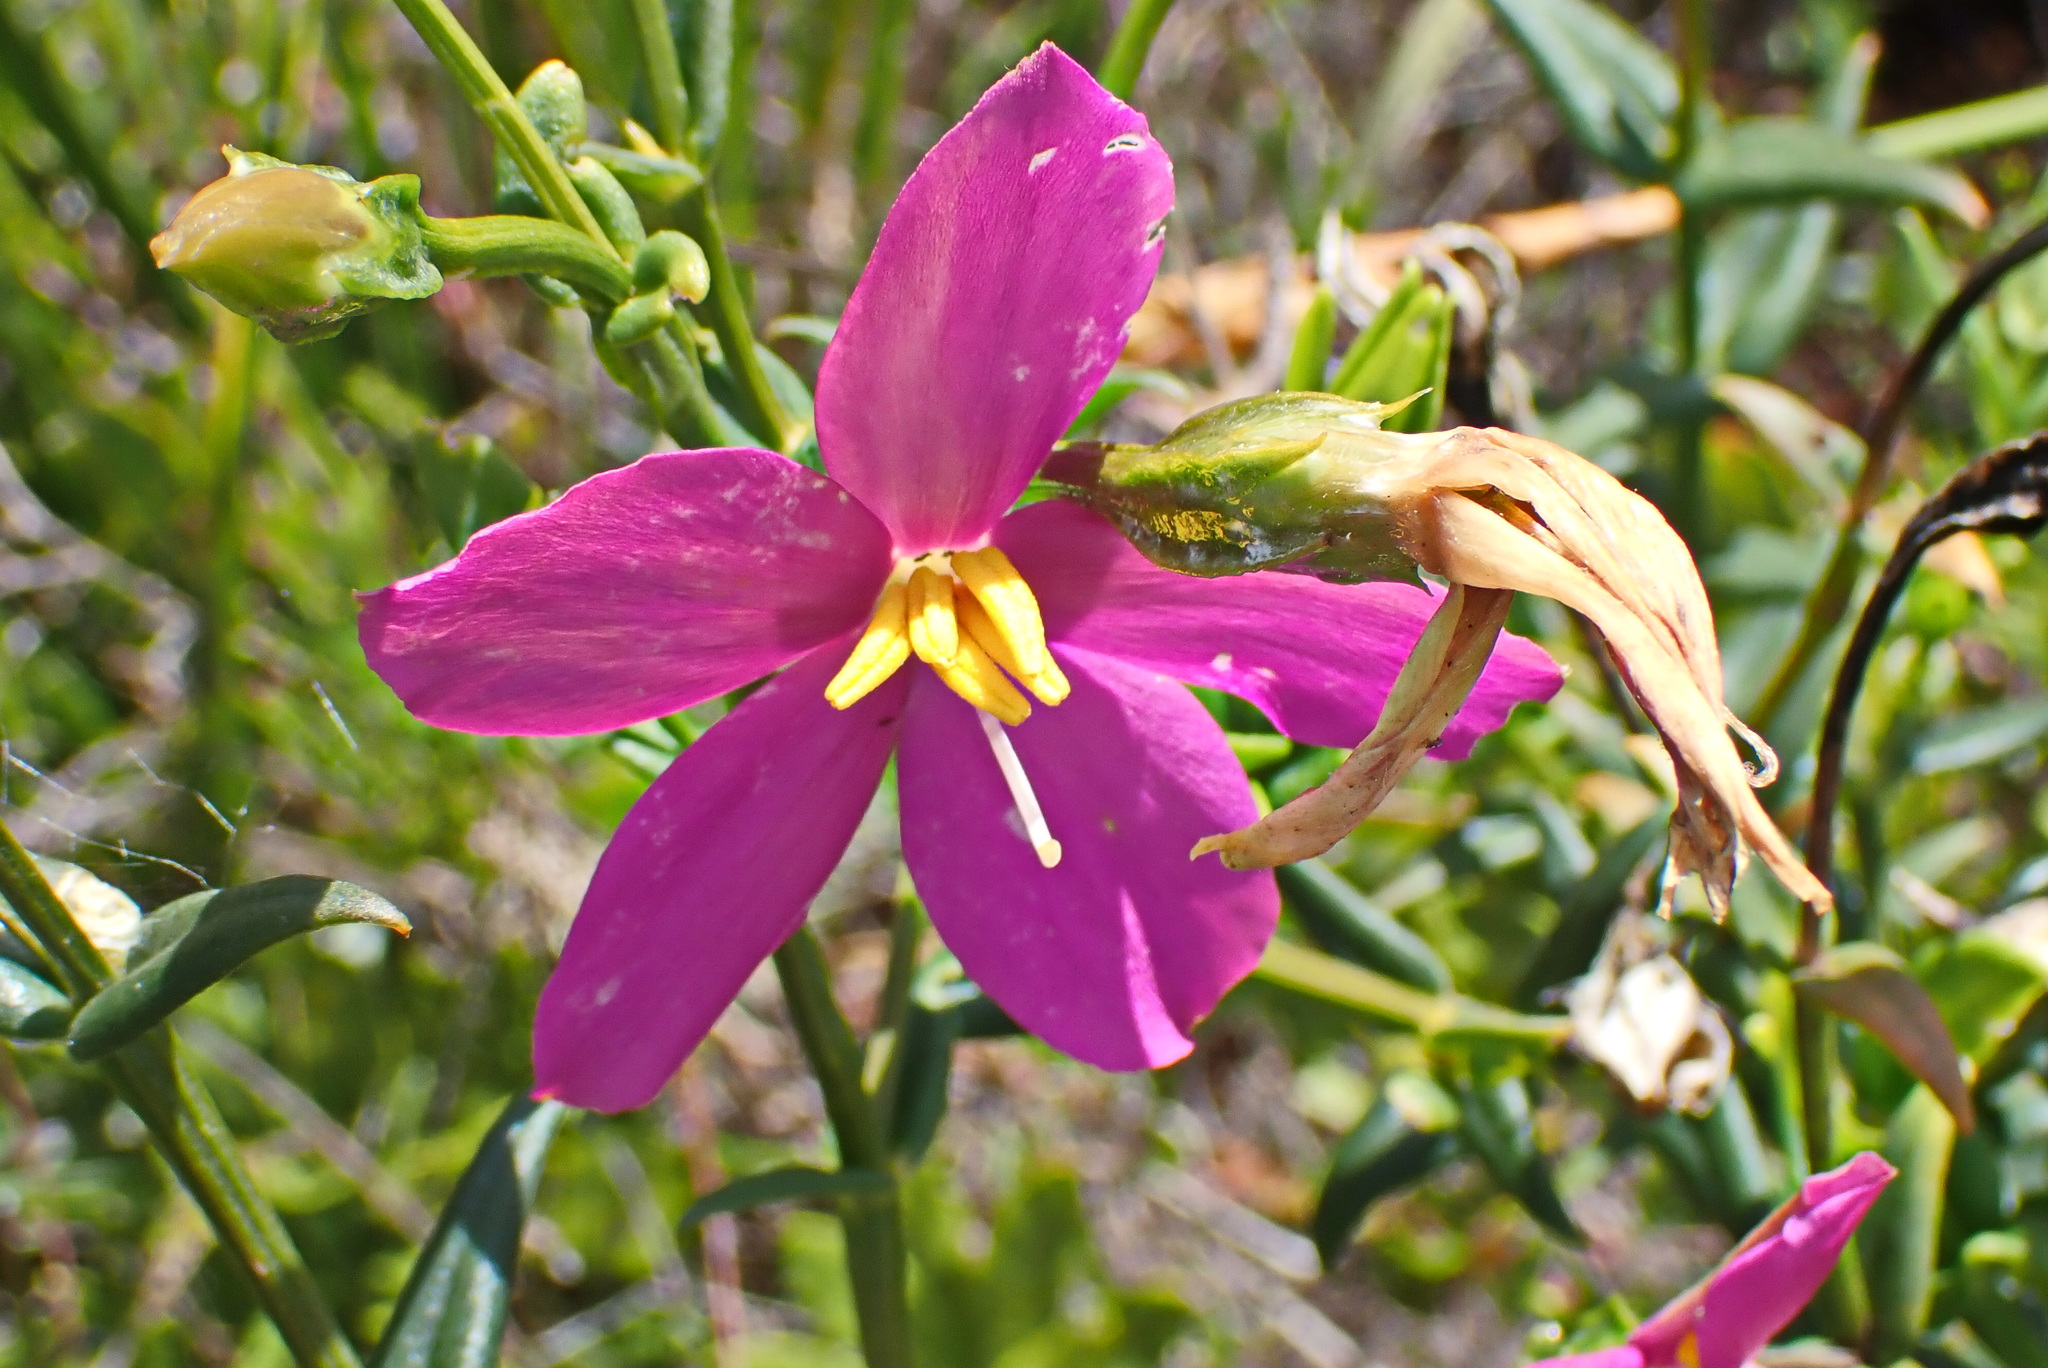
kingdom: Plantae
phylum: Tracheophyta
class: Magnoliopsida
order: Gentianales
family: Gentianaceae
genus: Chironia
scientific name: Chironia melampyrifolia
